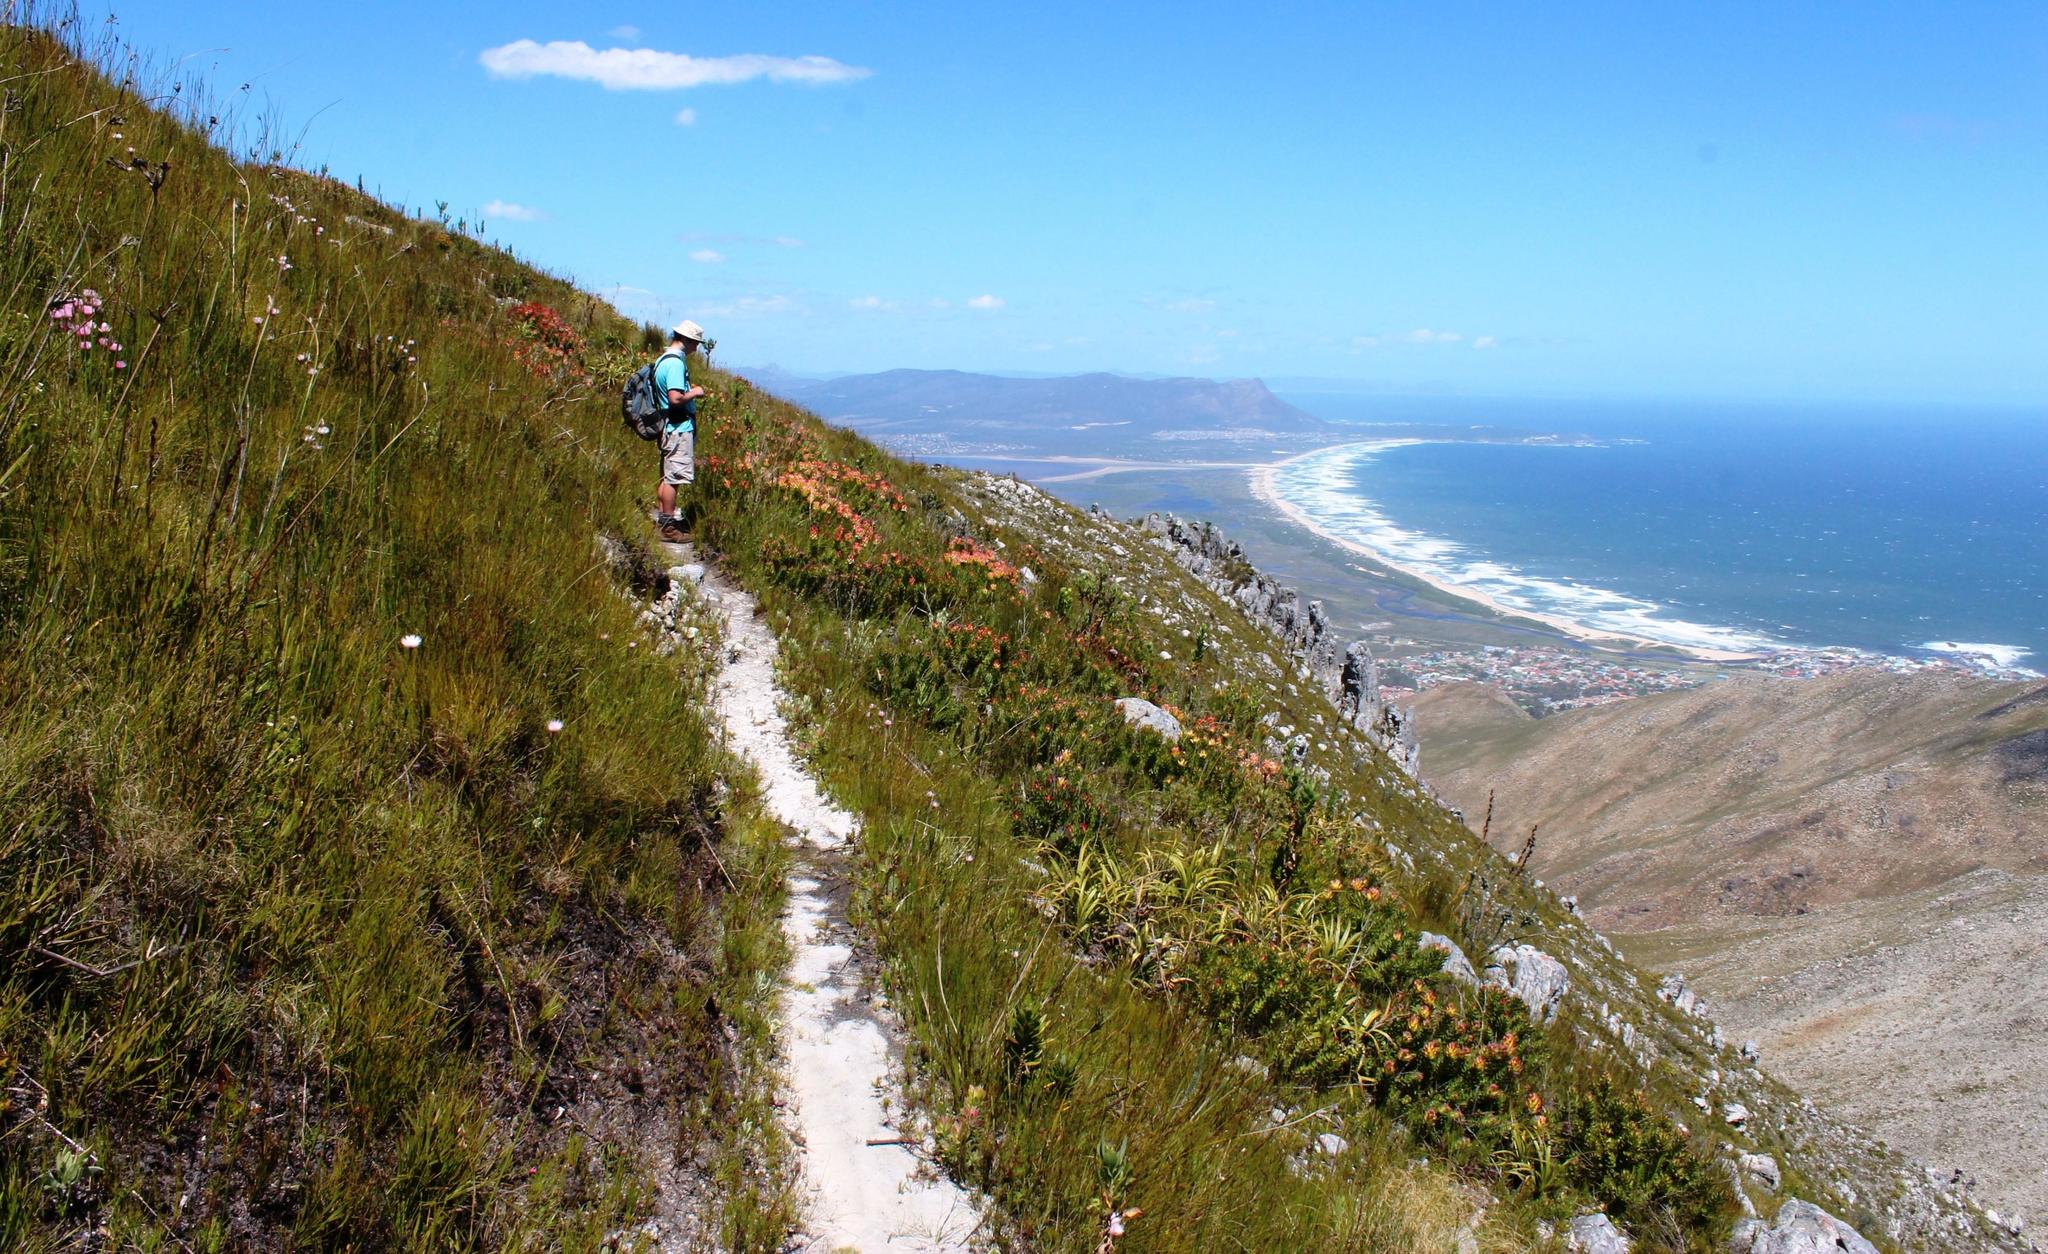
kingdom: Plantae
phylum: Tracheophyta
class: Magnoliopsida
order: Proteales
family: Proteaceae
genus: Mimetes
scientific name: Mimetes cucullatus
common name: Common pagoda
